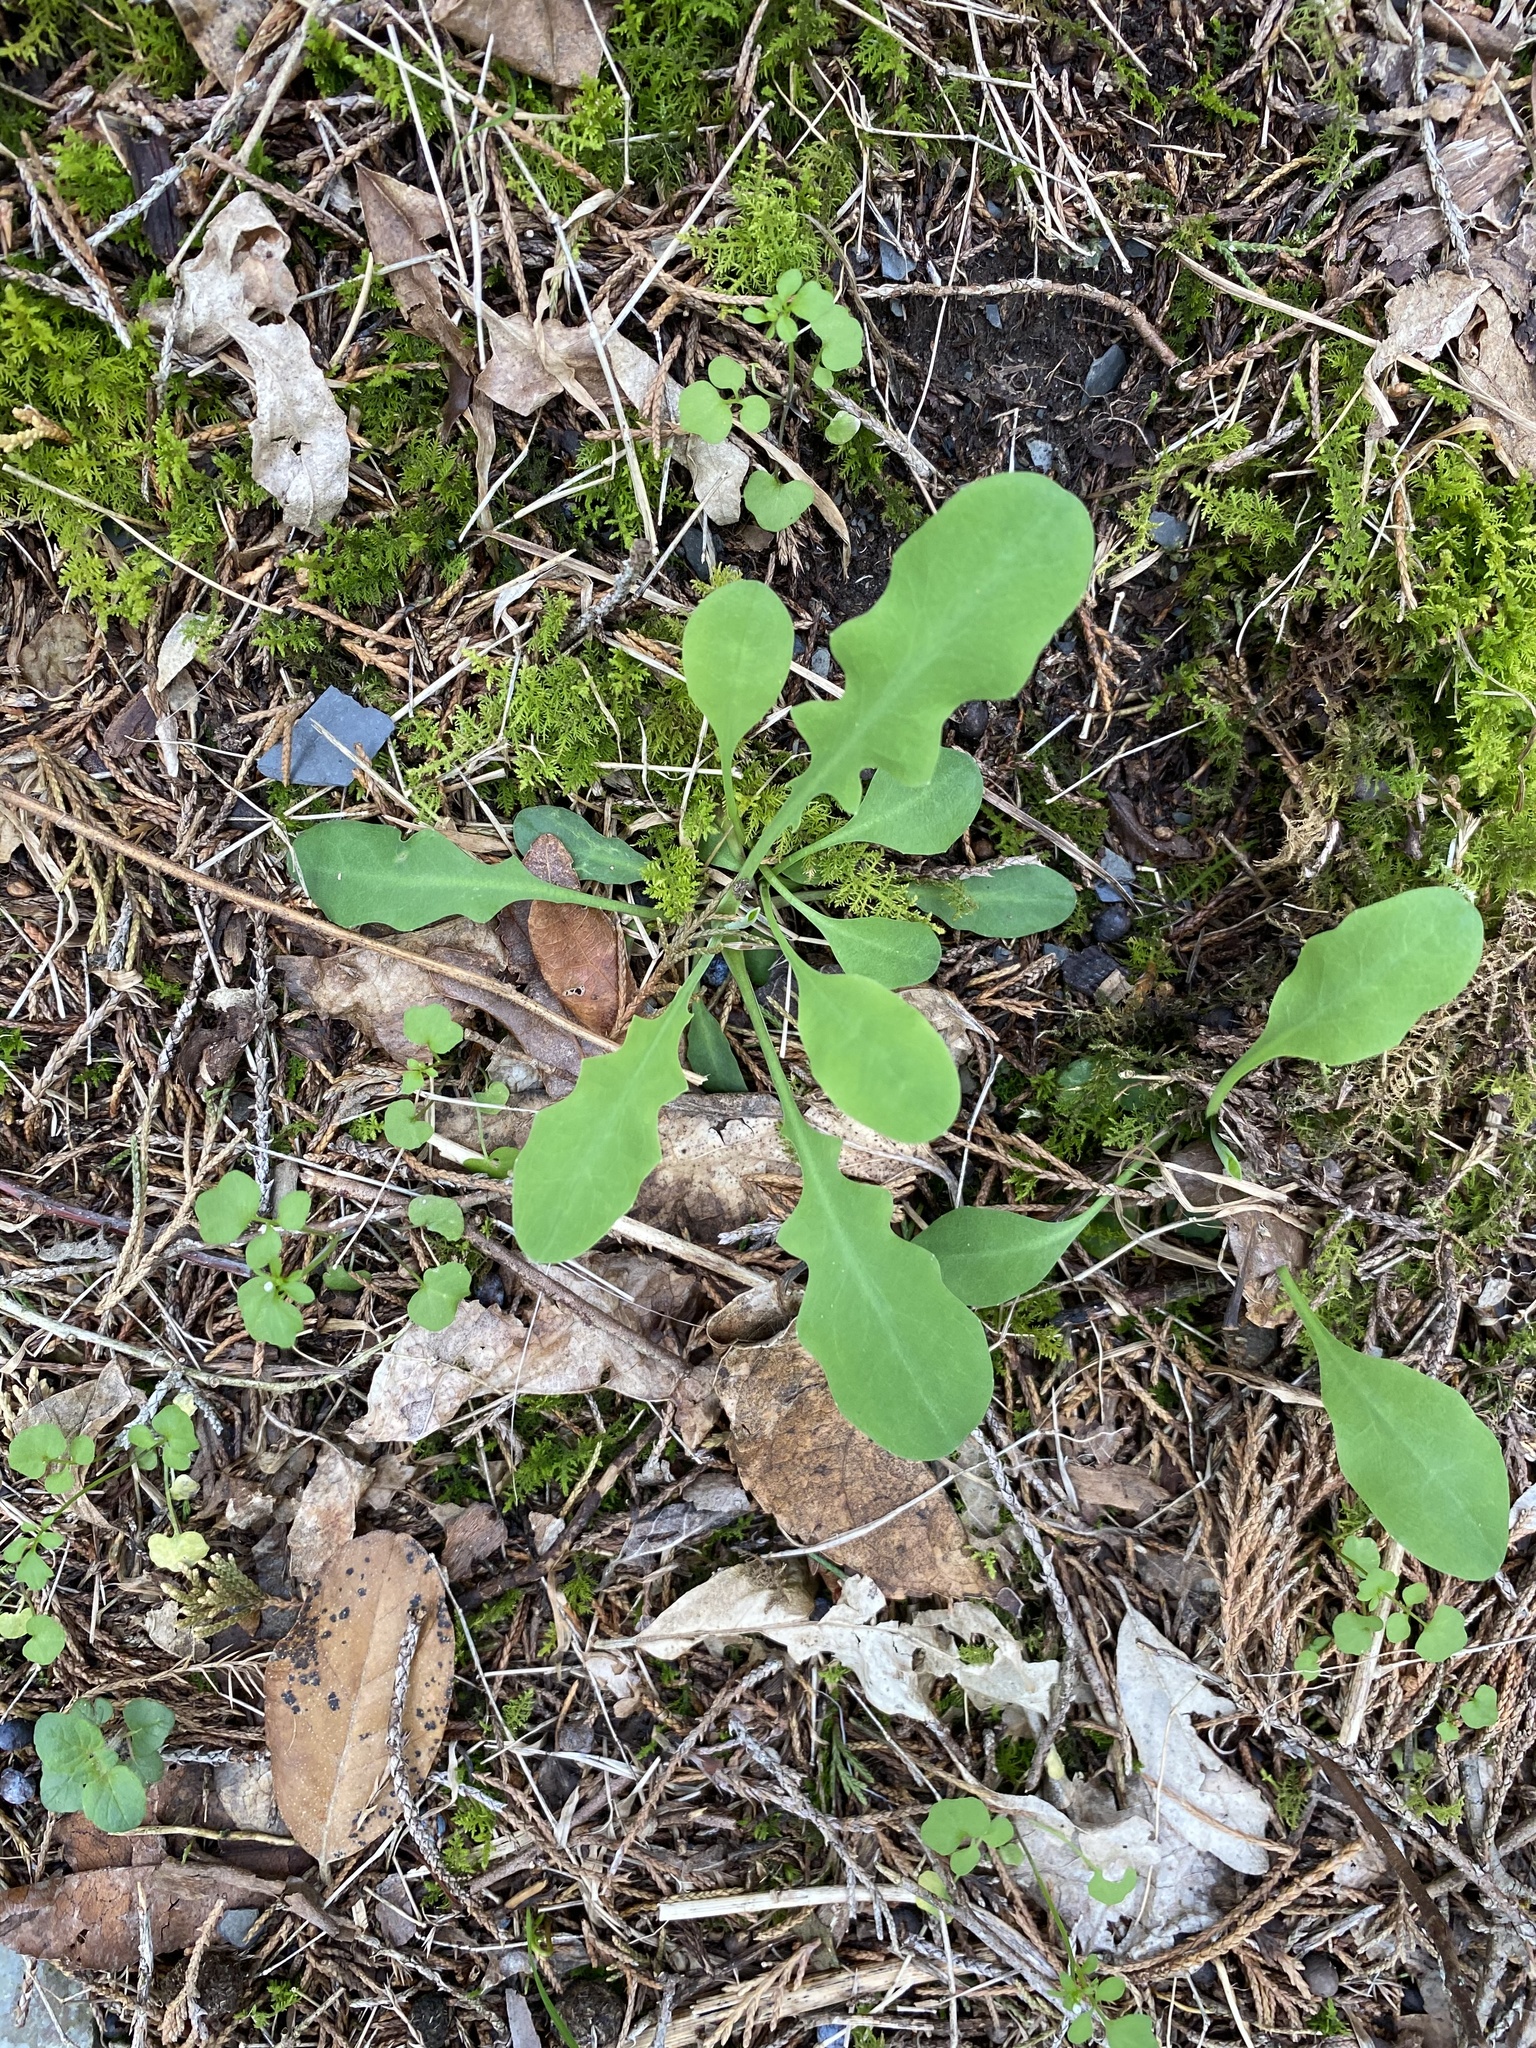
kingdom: Plantae
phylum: Tracheophyta
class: Magnoliopsida
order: Asterales
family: Asteraceae
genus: Krigia
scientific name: Krigia biflora
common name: Orange dwarf-dandelion
